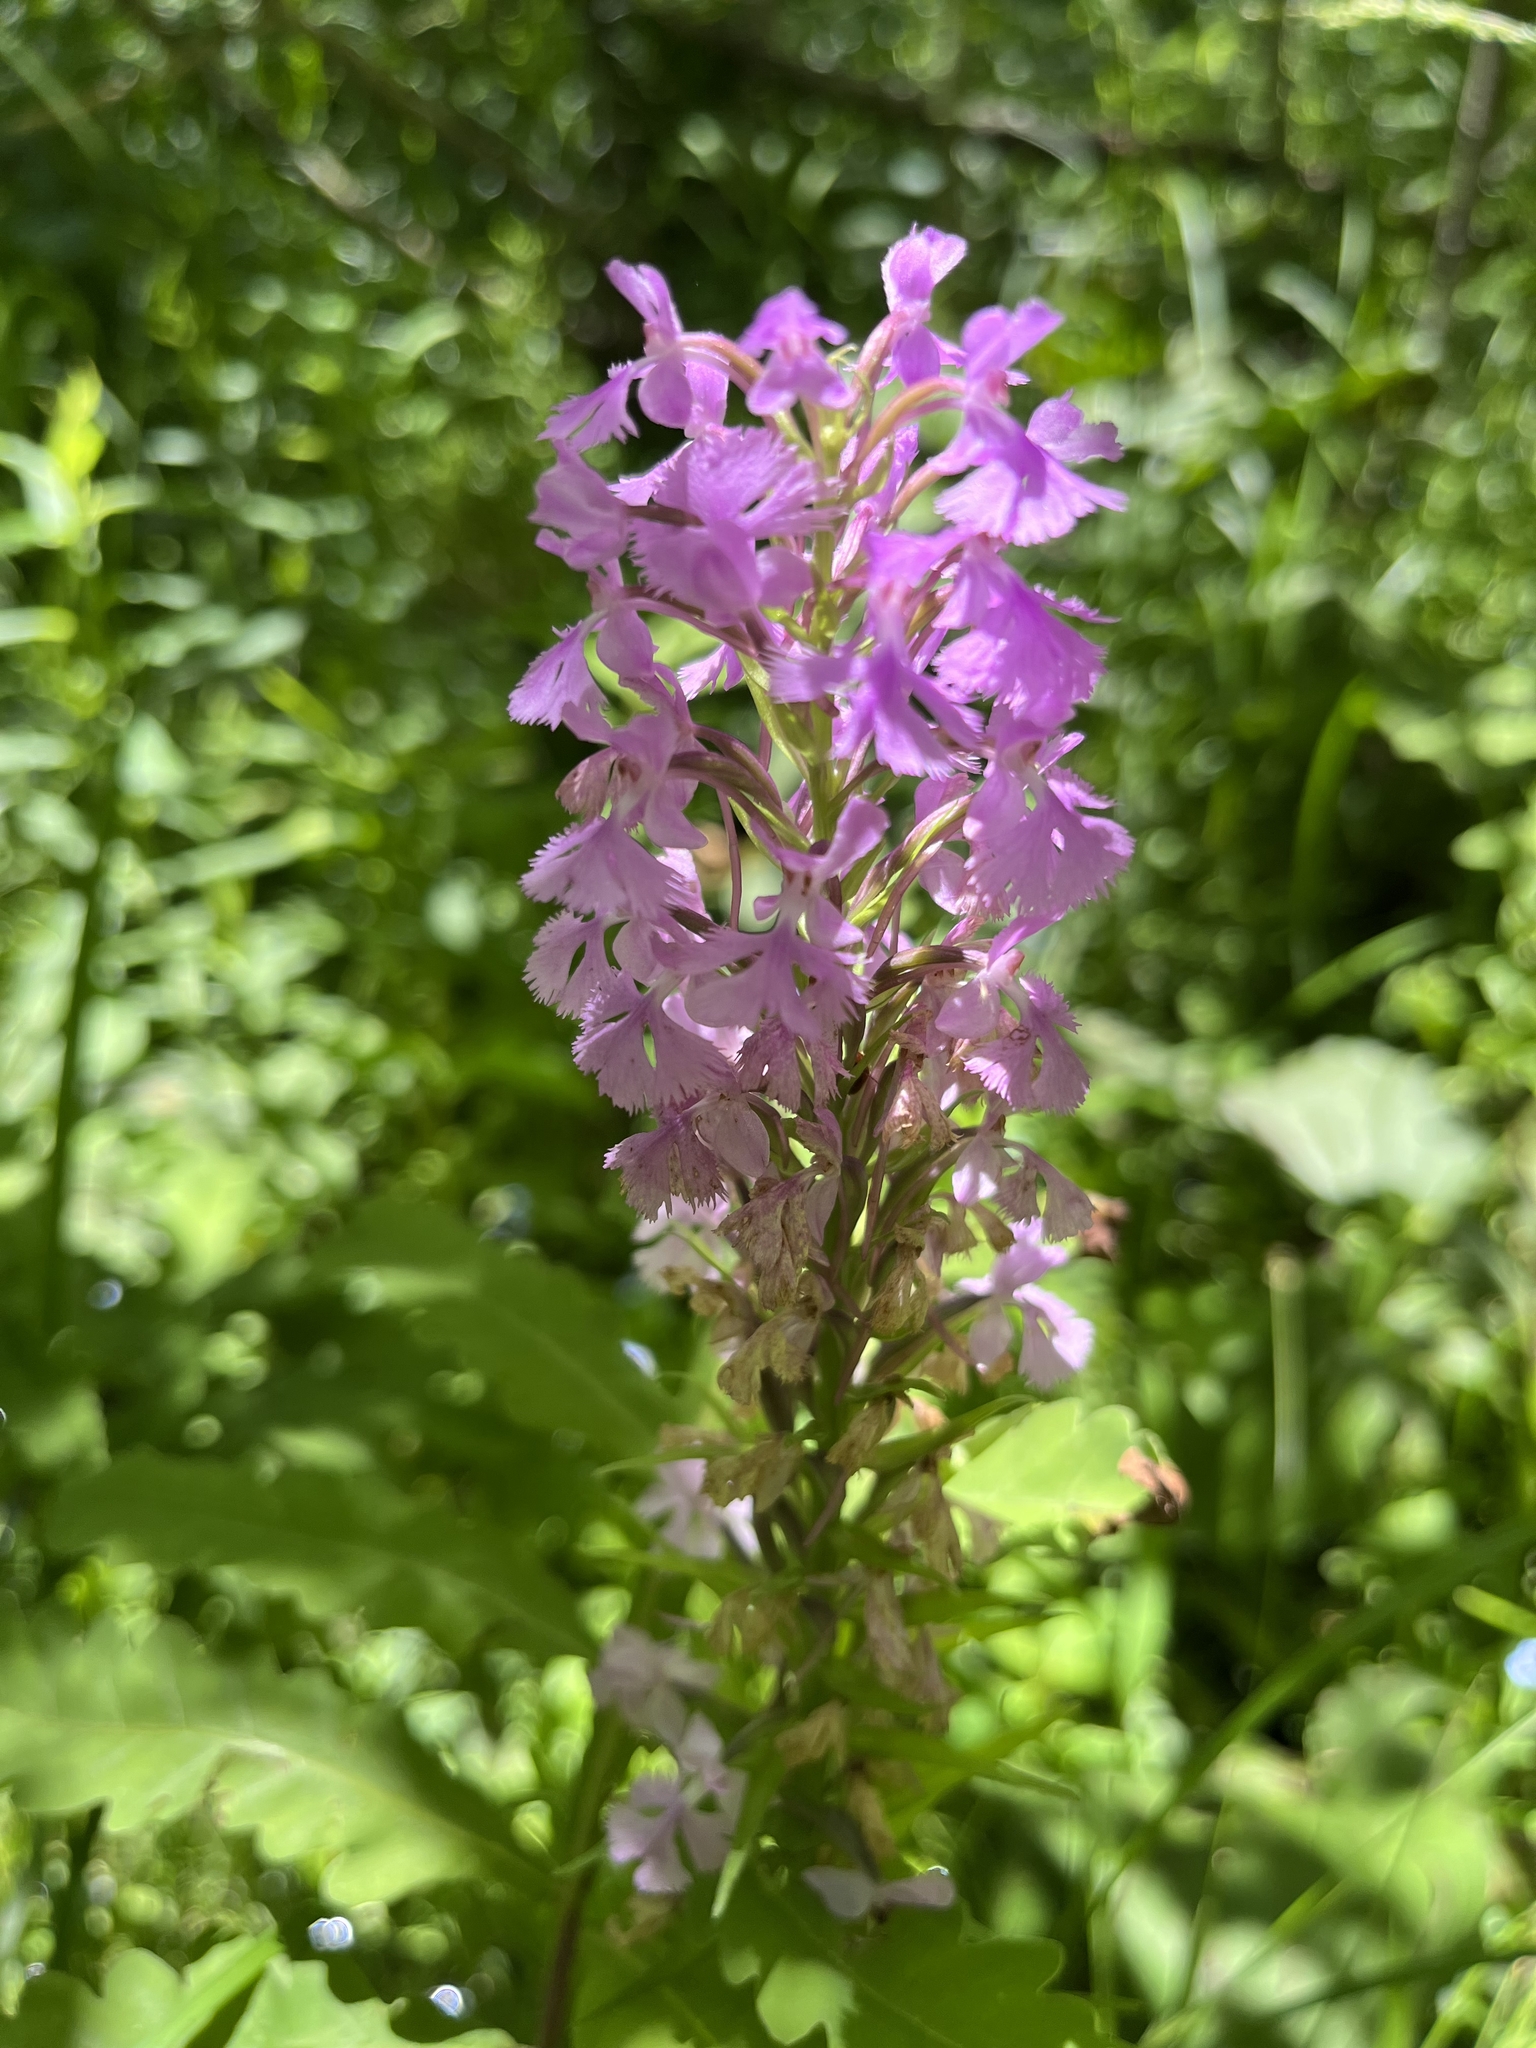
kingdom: Plantae
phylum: Tracheophyta
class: Liliopsida
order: Asparagales
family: Orchidaceae
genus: Platanthera
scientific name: Platanthera psycodes
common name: Lesser purple fringed orchid
